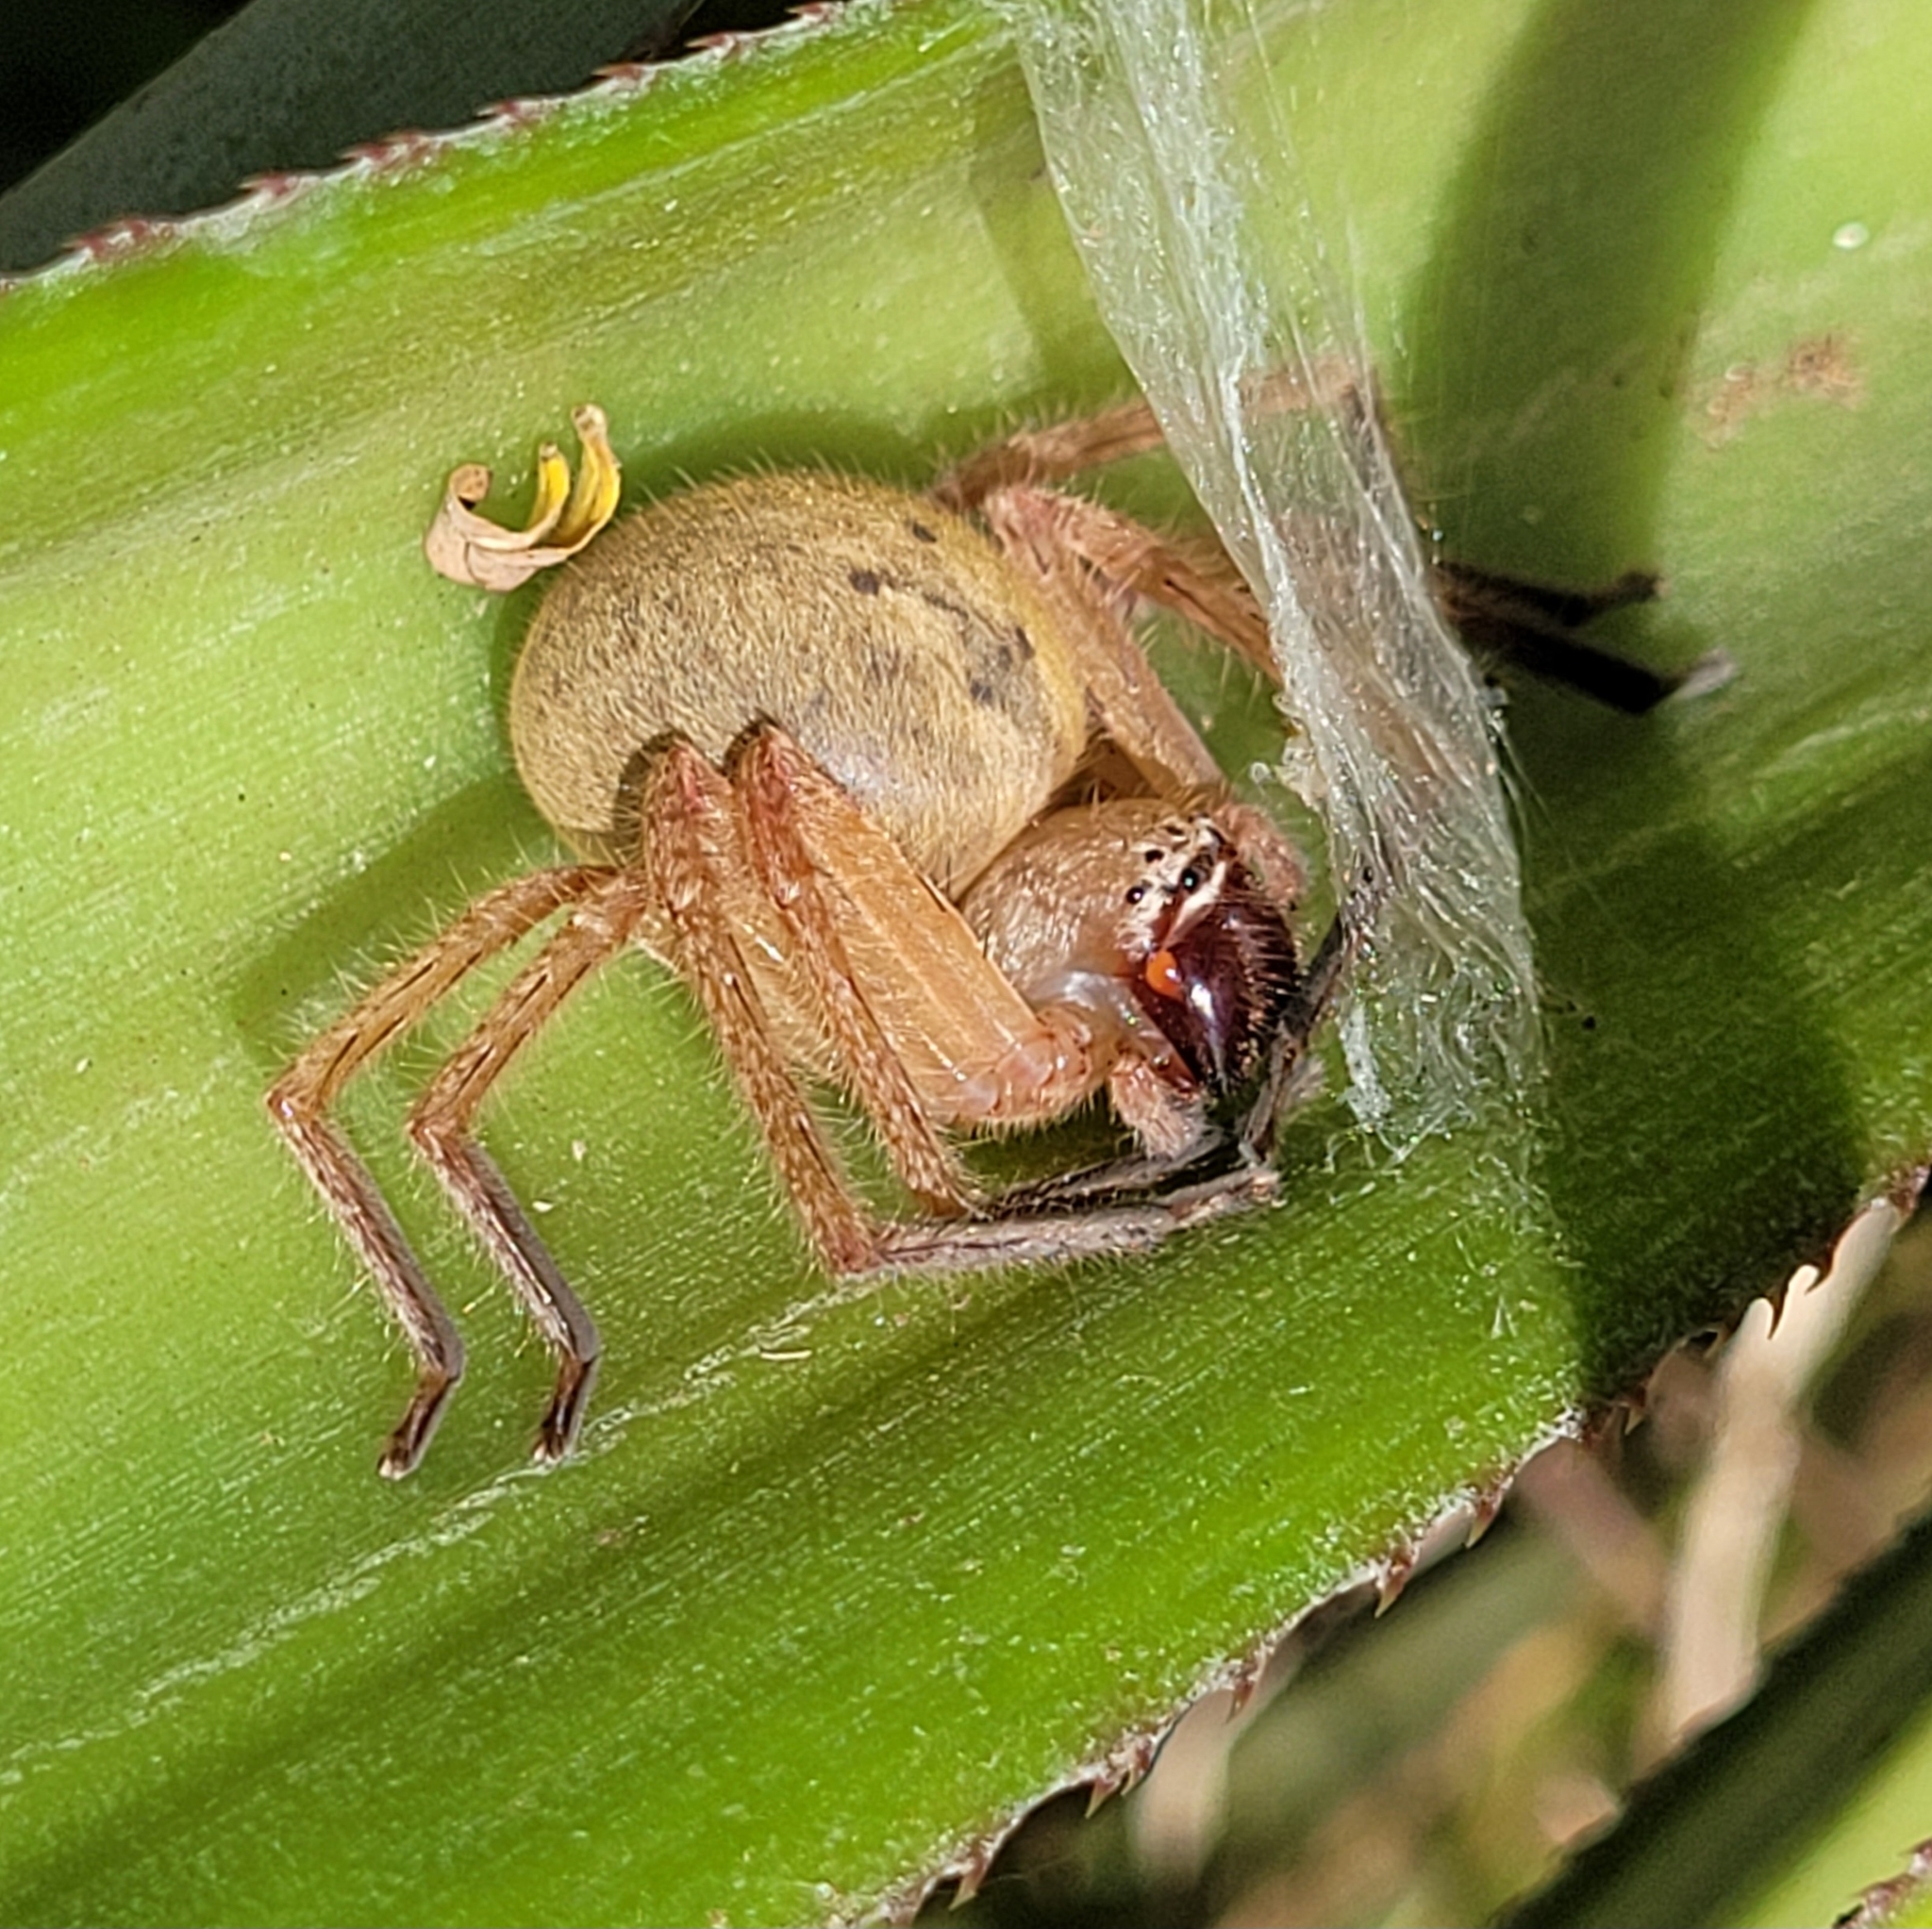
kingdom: Animalia
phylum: Arthropoda
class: Arachnida
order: Araneae
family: Sparassidae
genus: Nolavia
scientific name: Nolavia antiguensis
